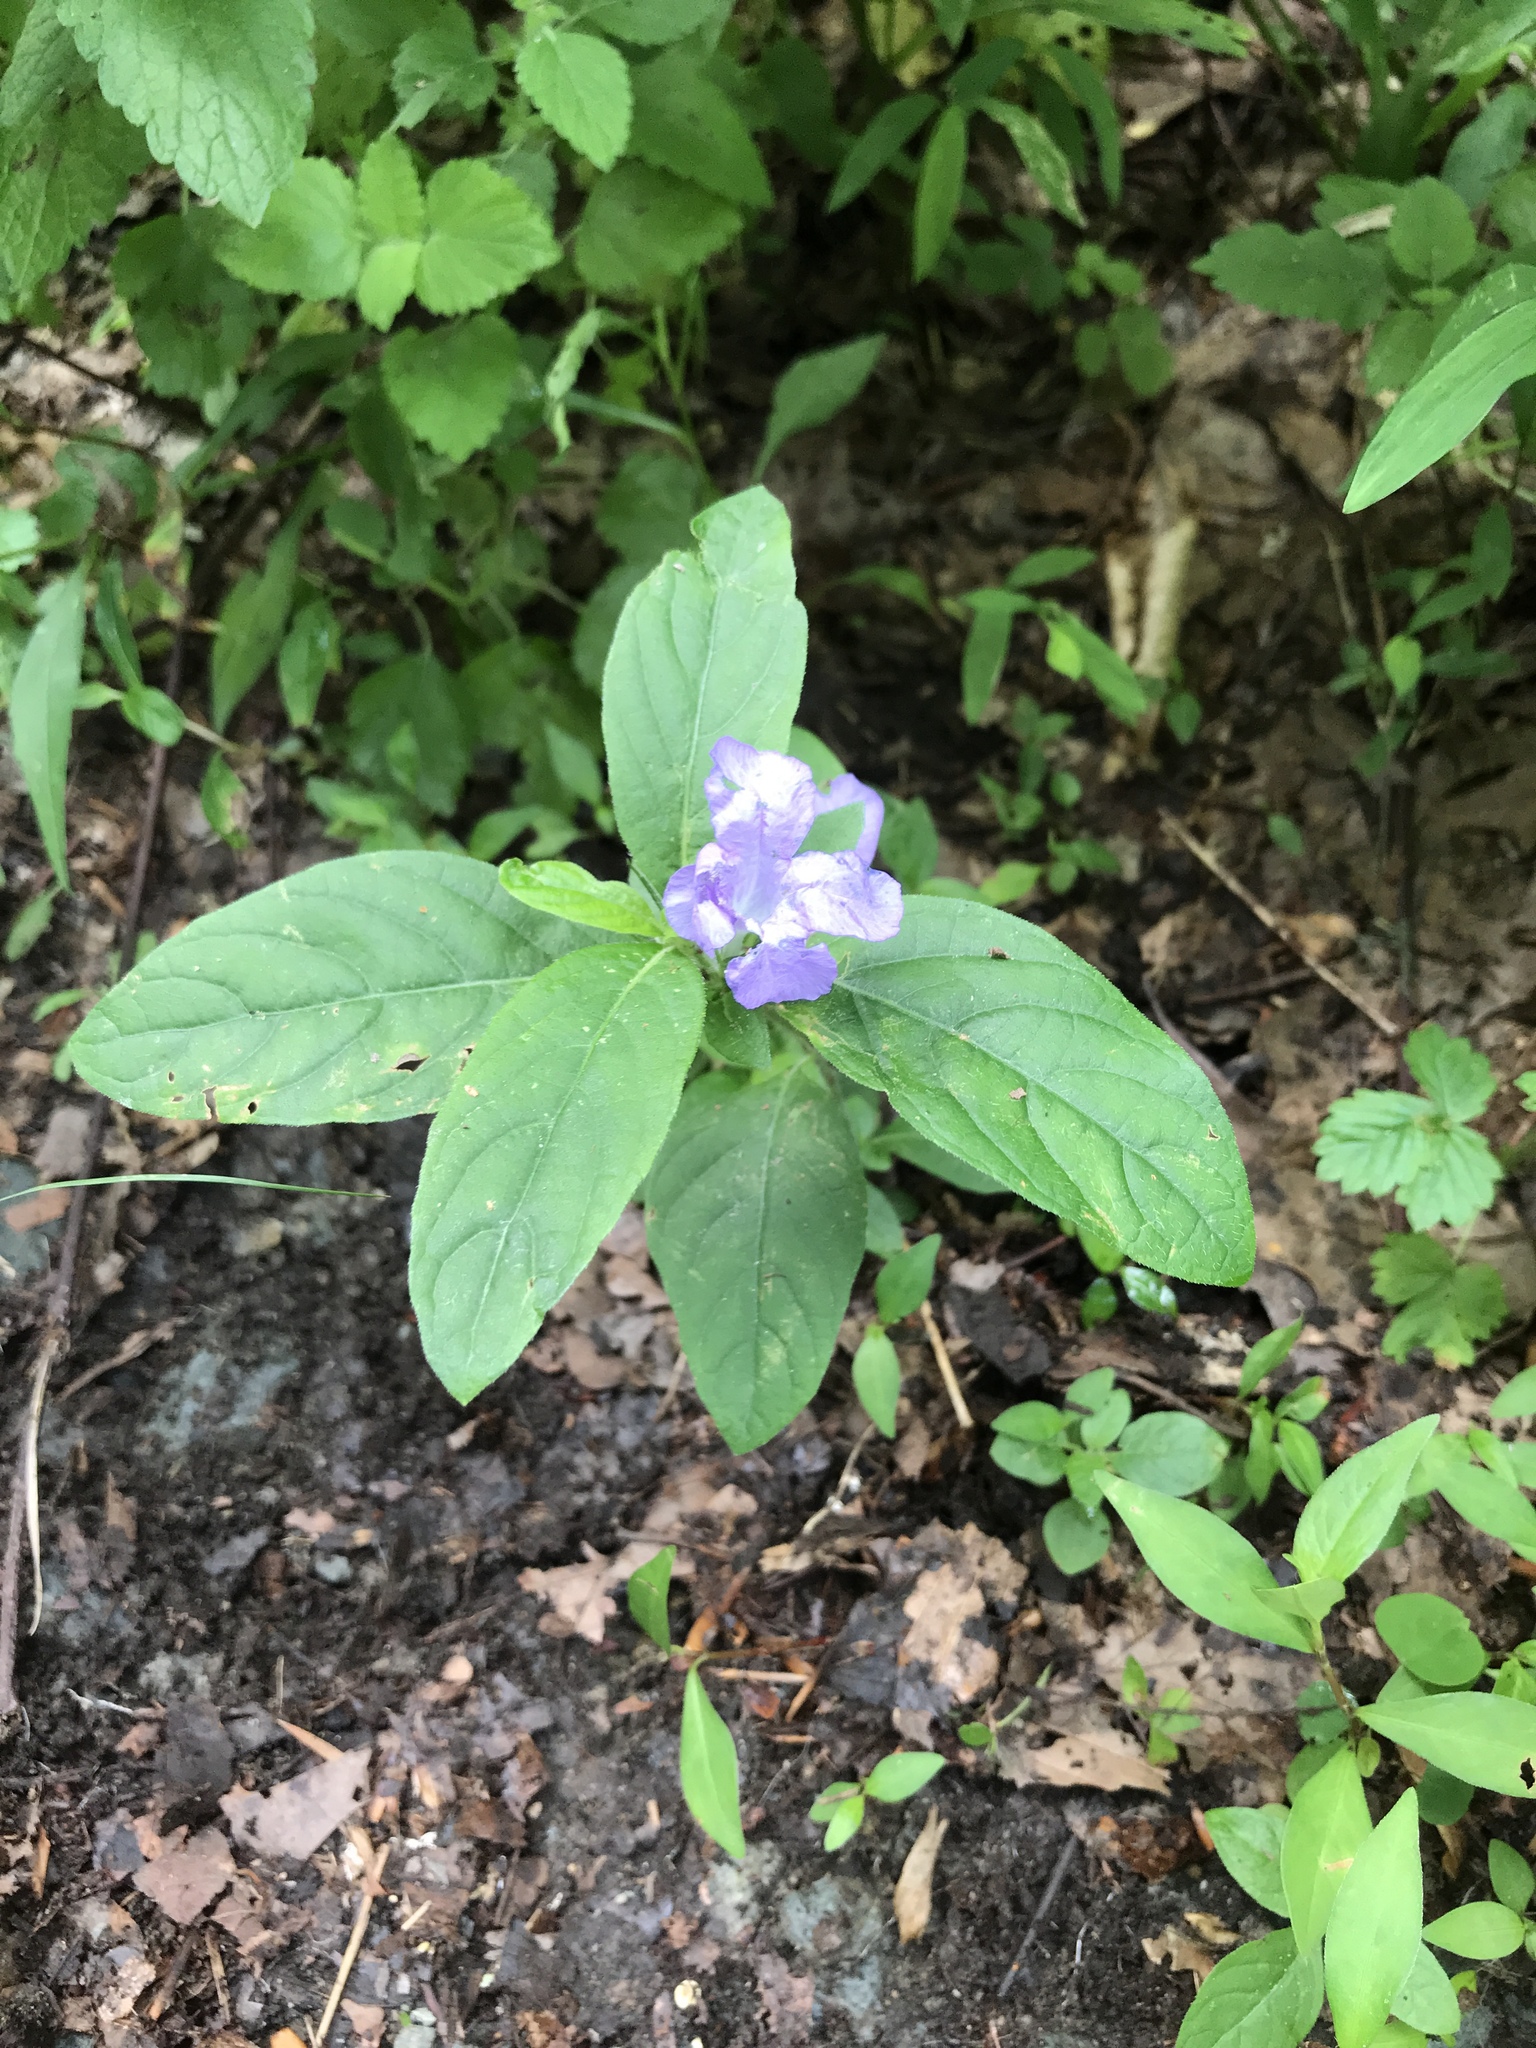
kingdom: Plantae
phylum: Tracheophyta
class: Magnoliopsida
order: Lamiales
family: Acanthaceae
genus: Ruellia
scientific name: Ruellia caroliniensis
